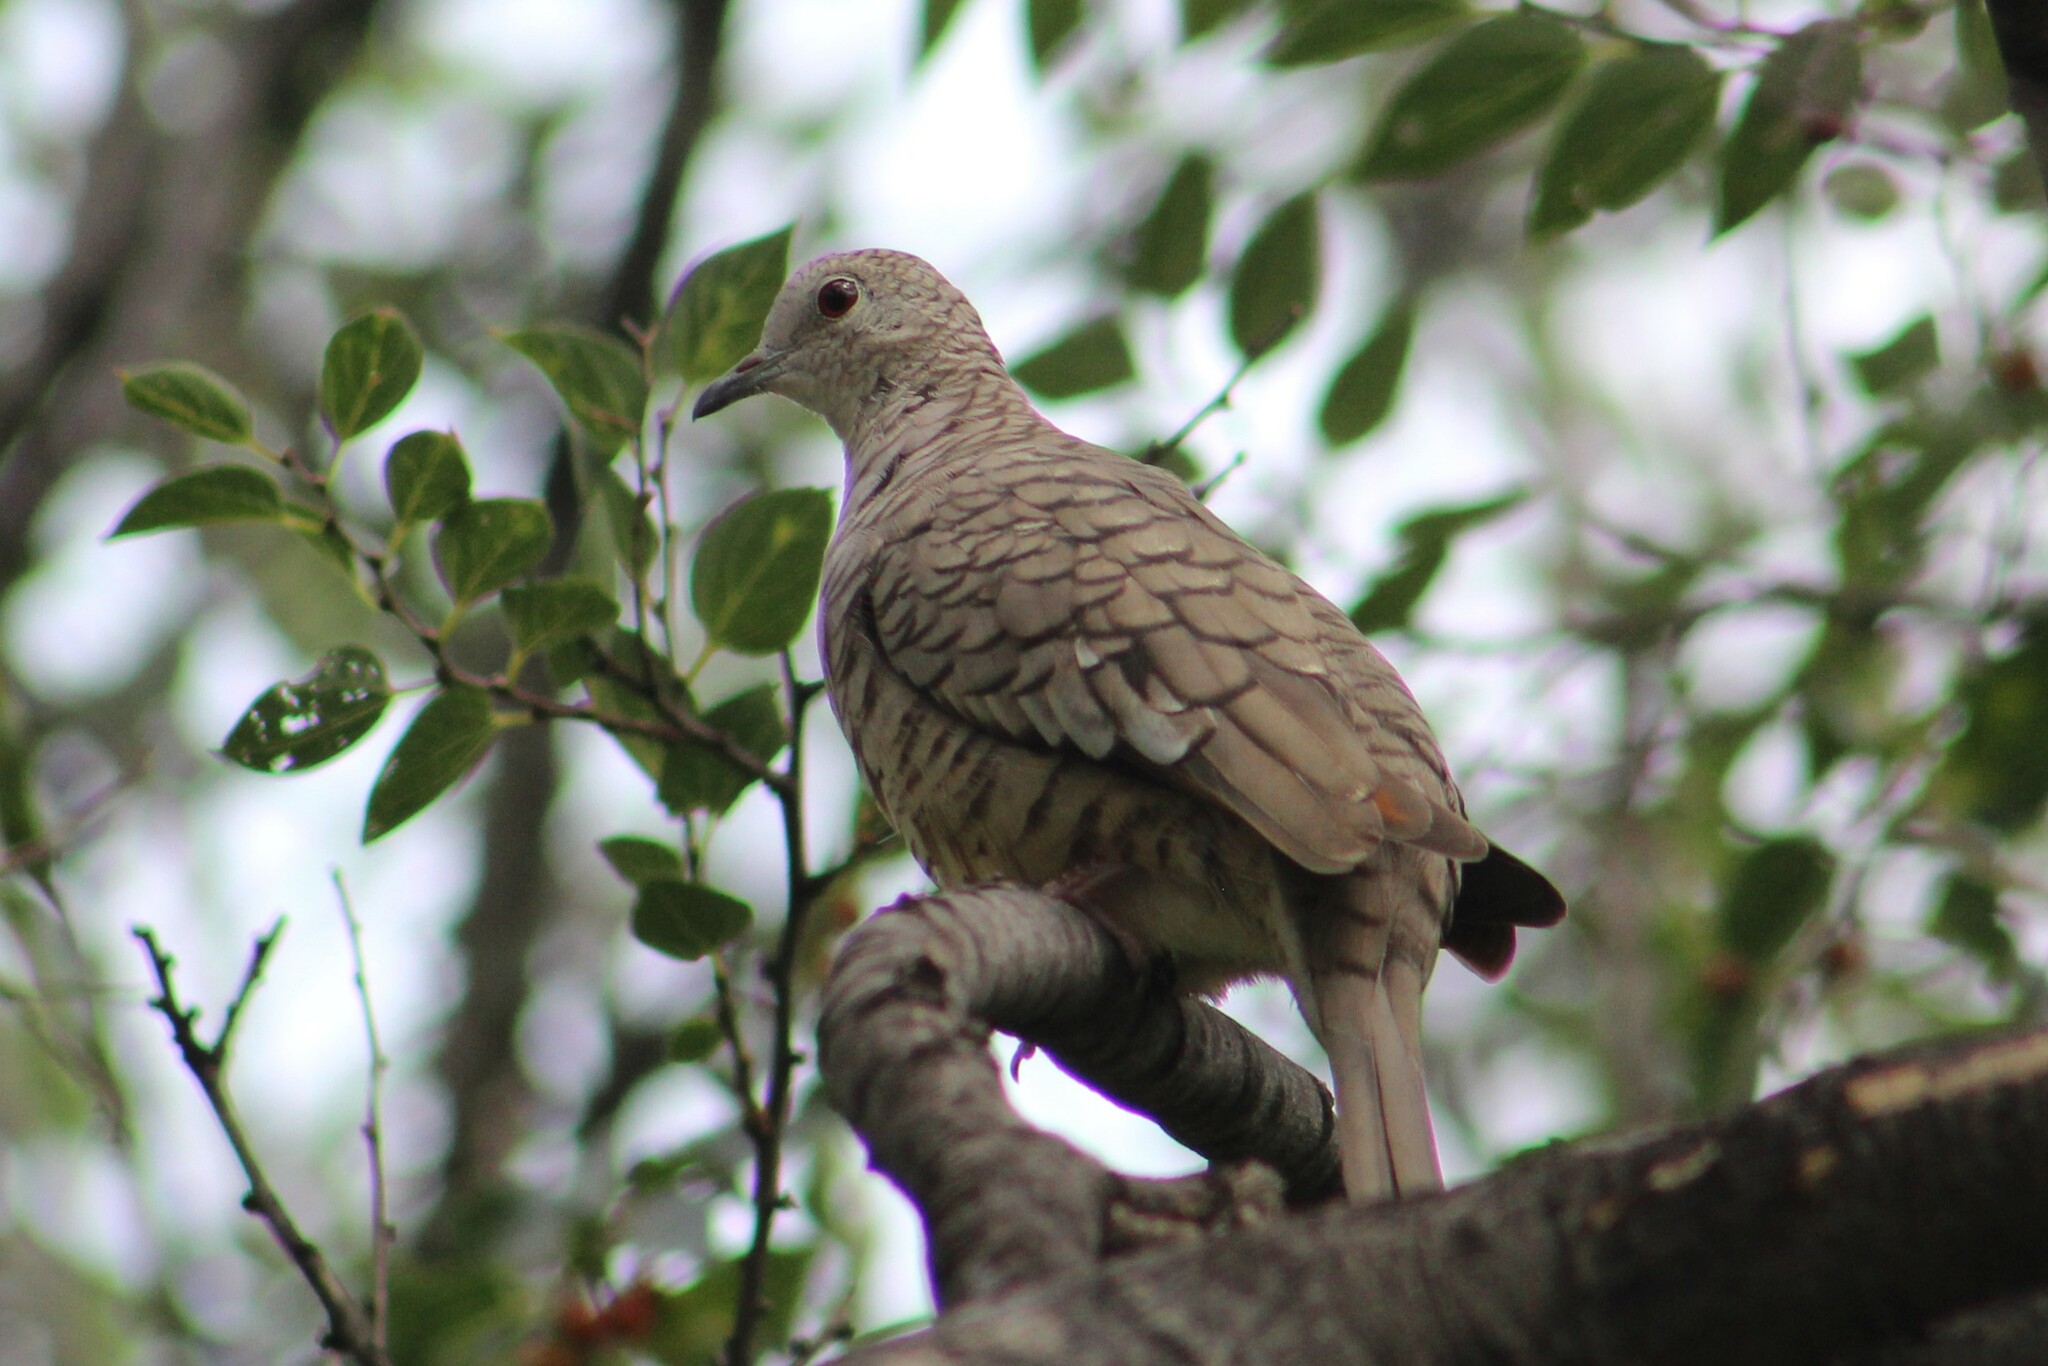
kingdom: Animalia
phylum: Chordata
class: Aves
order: Columbiformes
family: Columbidae
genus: Columbina
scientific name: Columbina inca
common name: Inca dove
